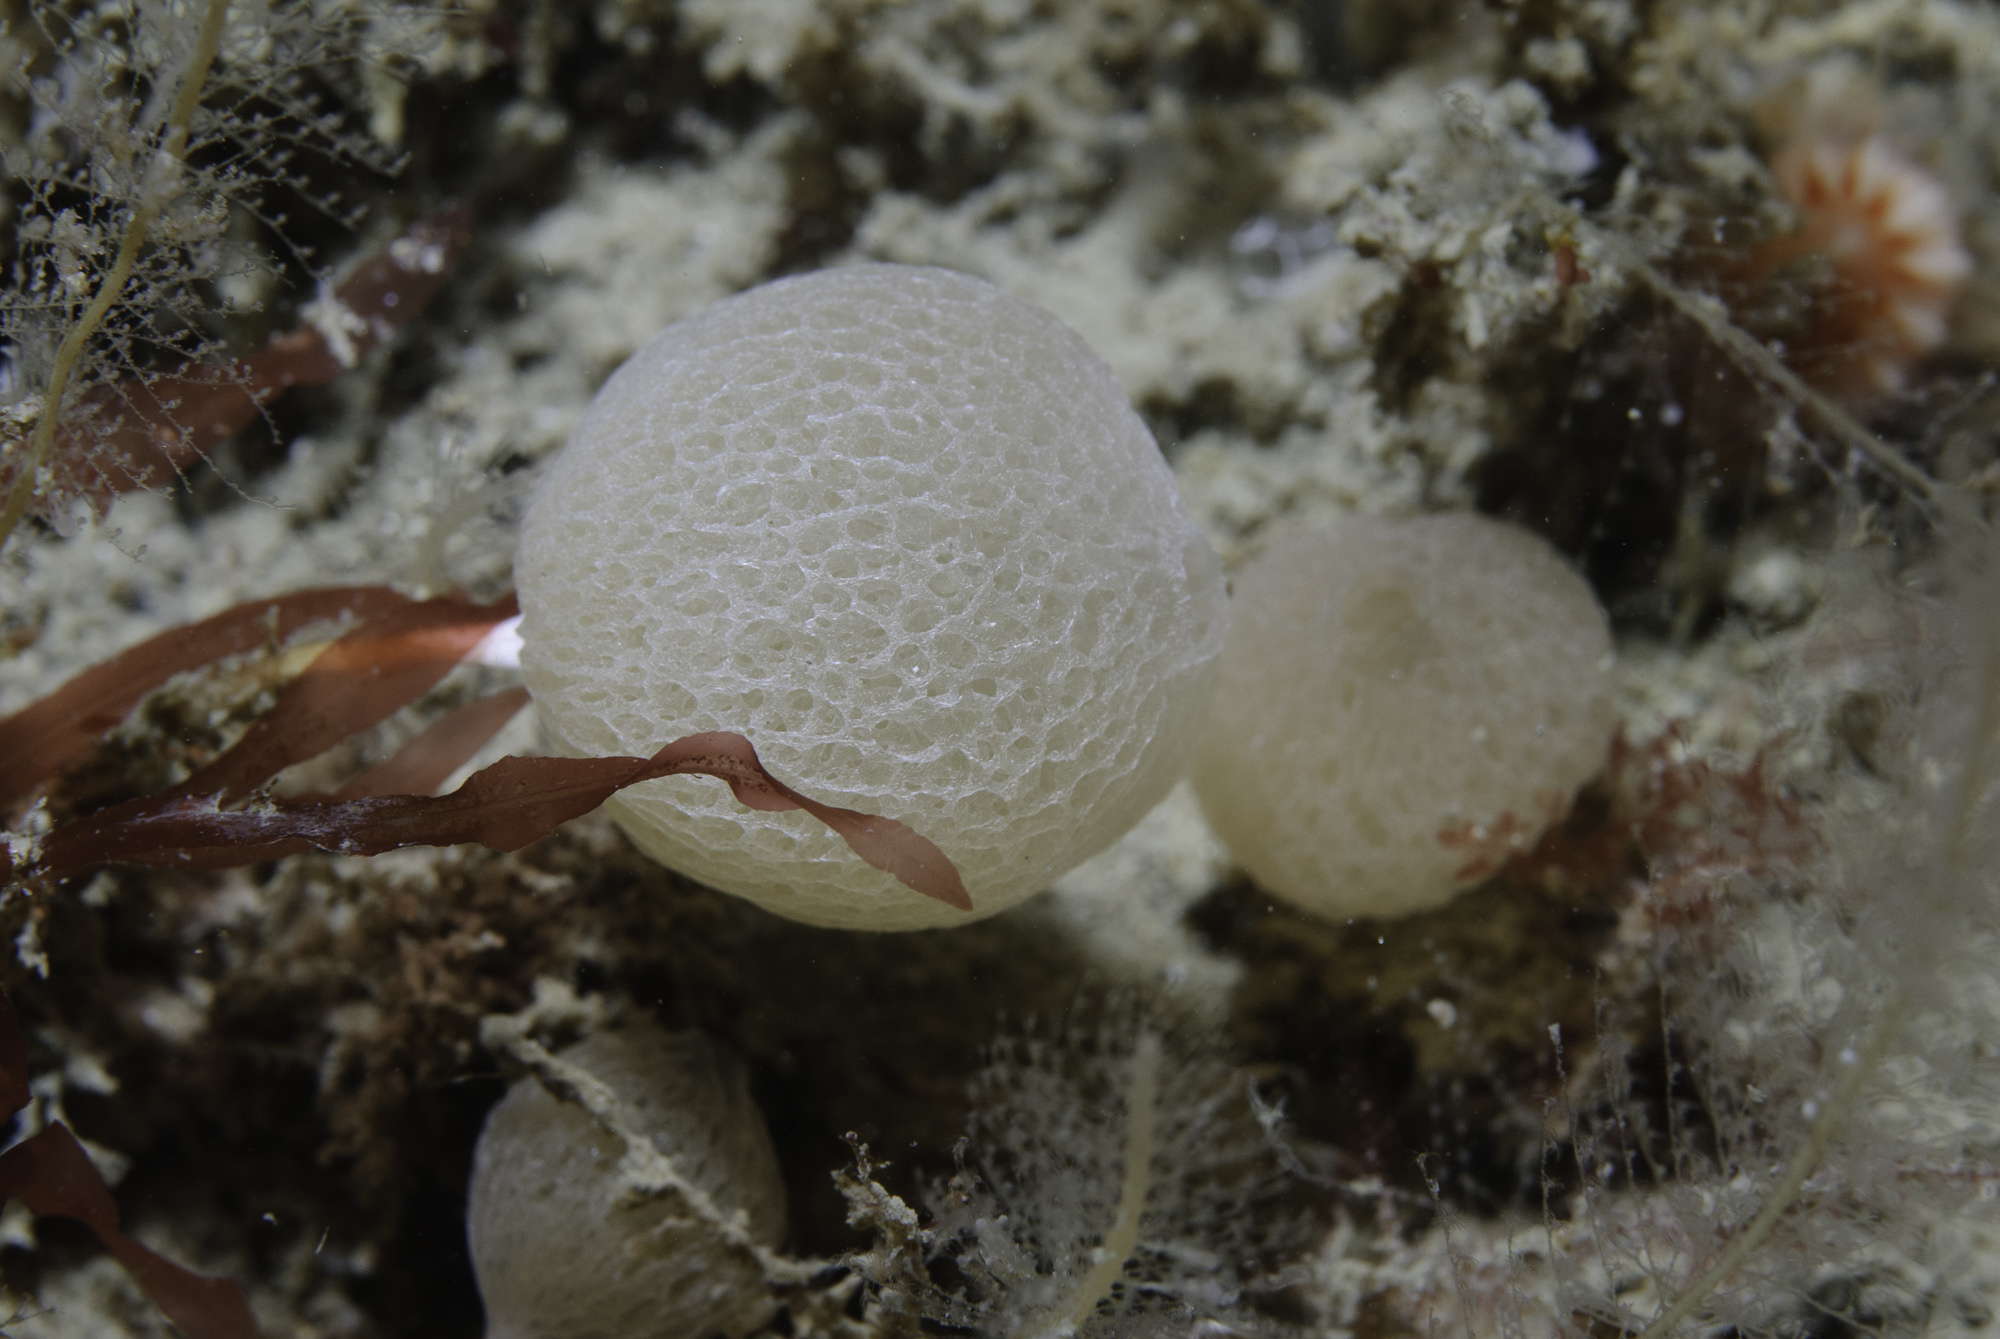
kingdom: Animalia
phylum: Porifera
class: Calcarea
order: Clathrinida
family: Clathrinidae
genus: Clathrina
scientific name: Clathrina lacunosa
